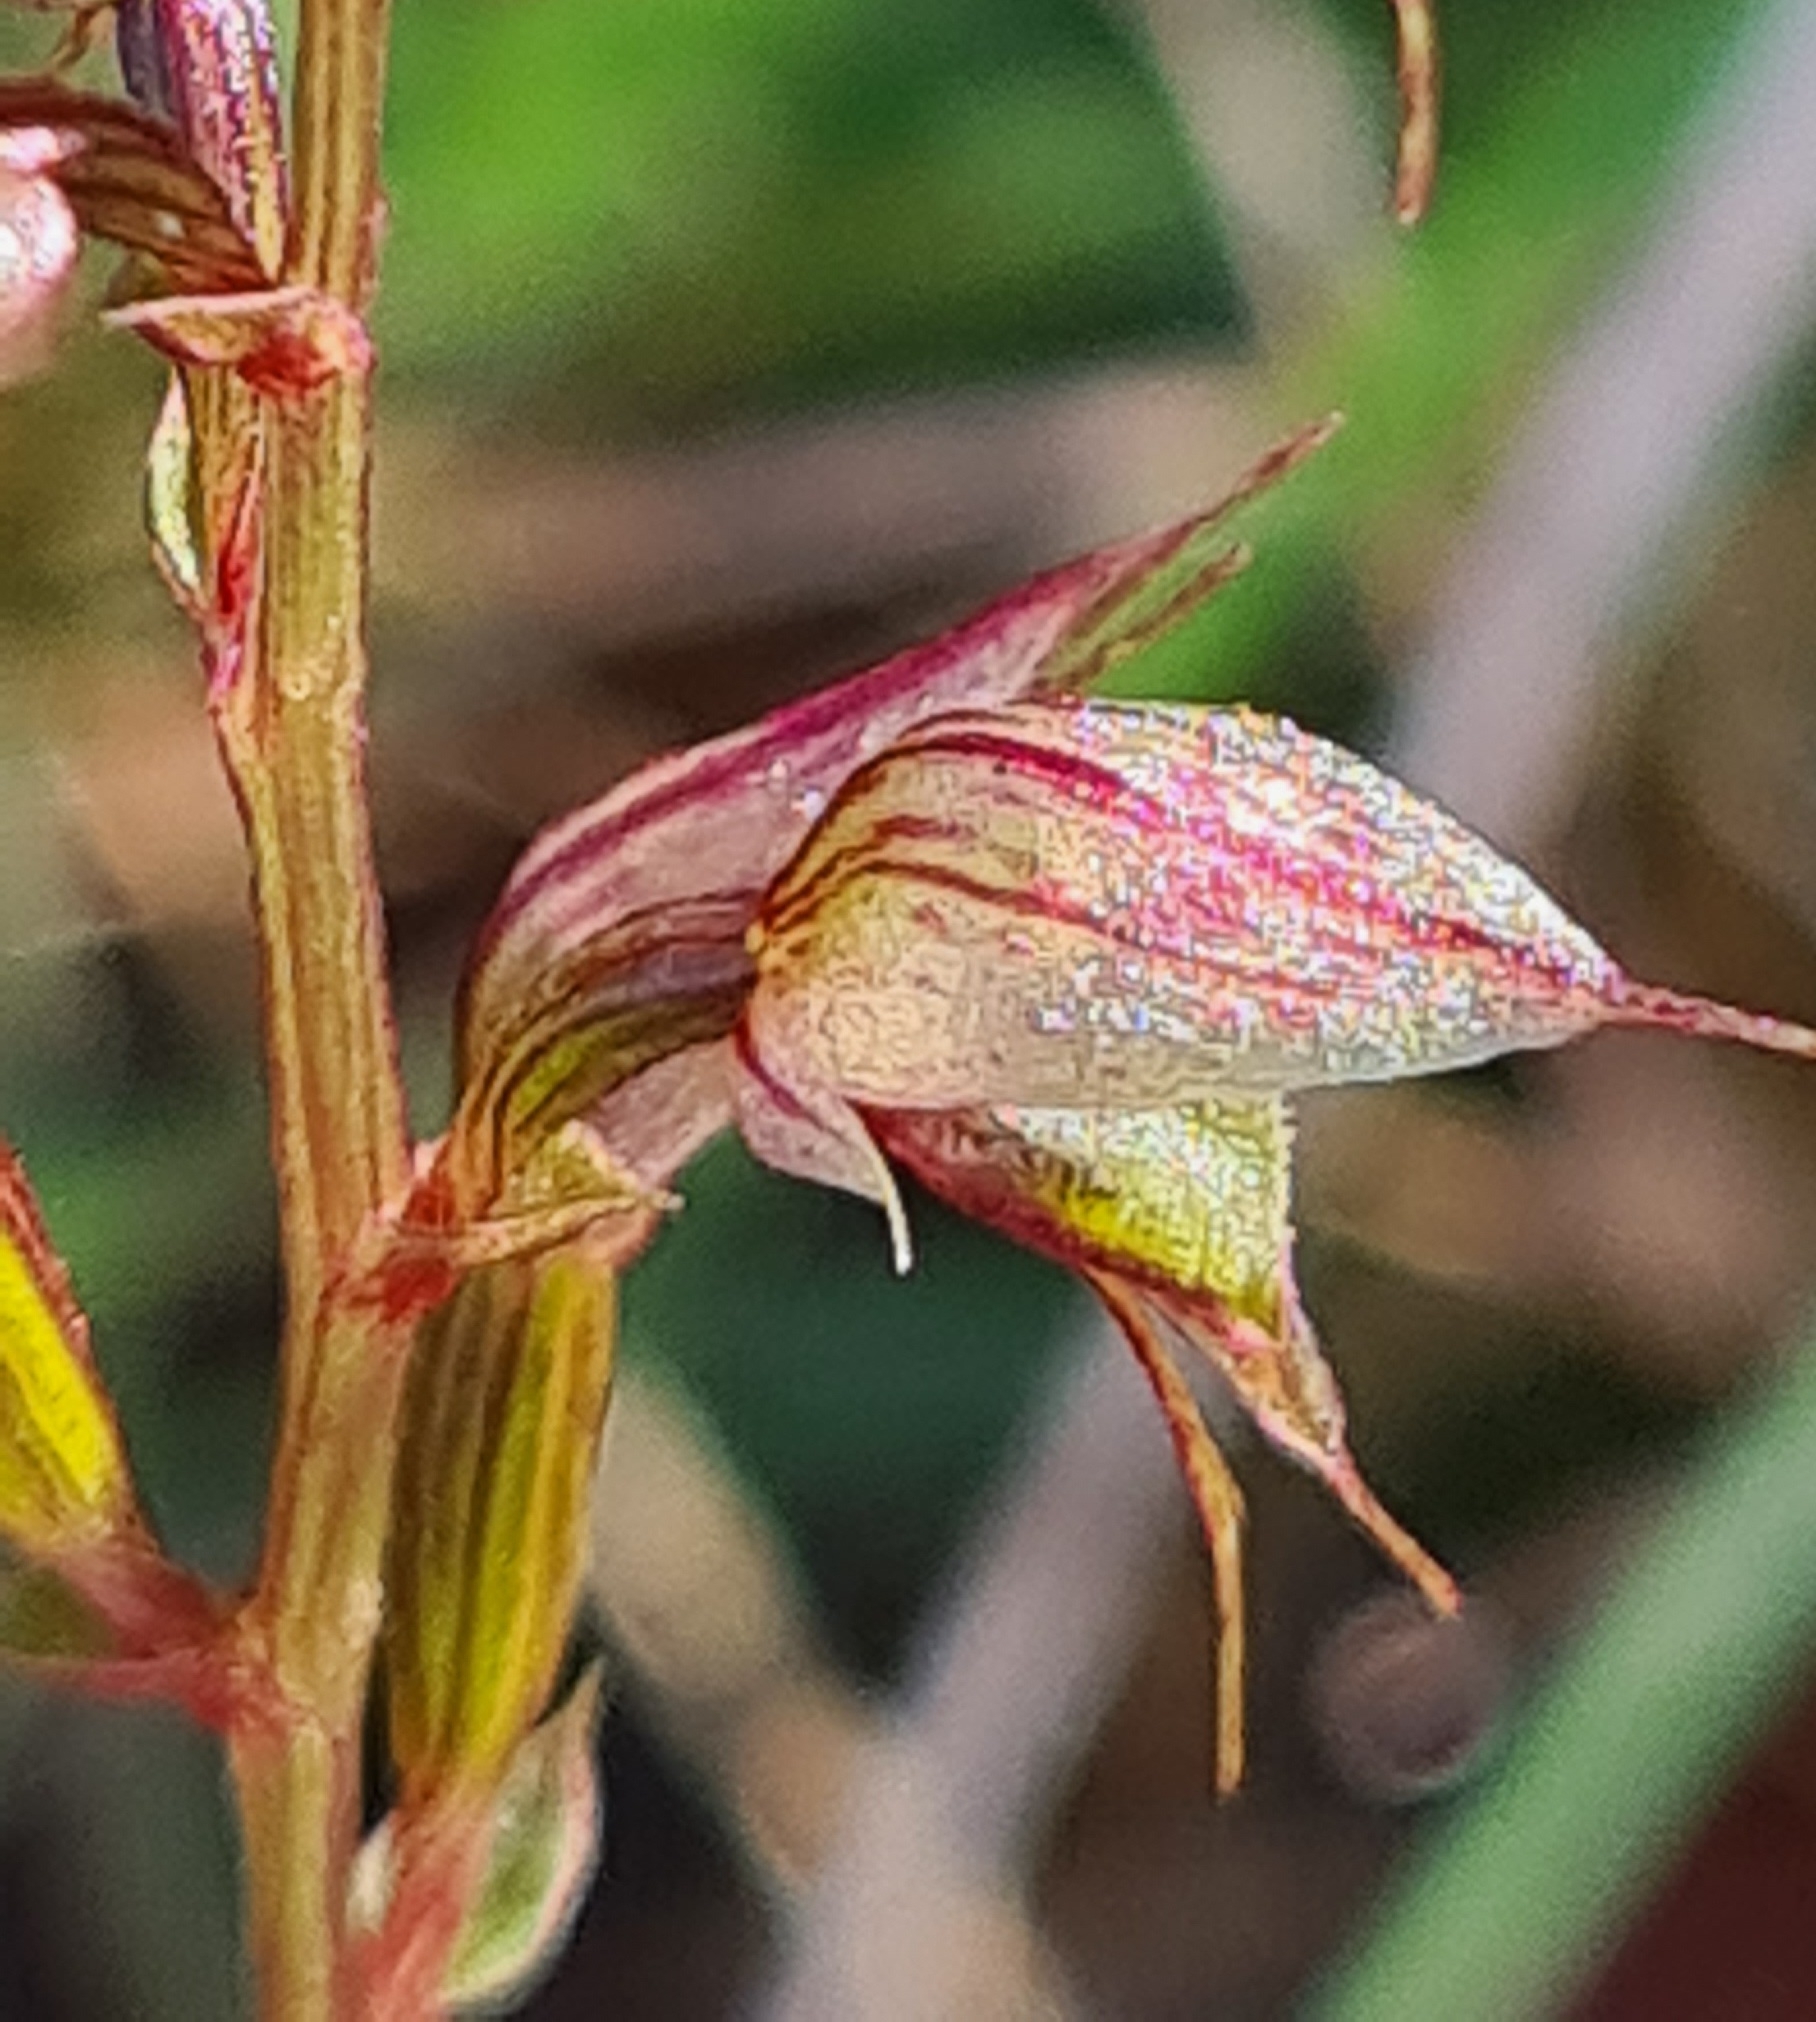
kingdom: Plantae
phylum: Tracheophyta
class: Liliopsida
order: Asparagales
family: Orchidaceae
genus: Acianthus
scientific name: Acianthus fornicatus
